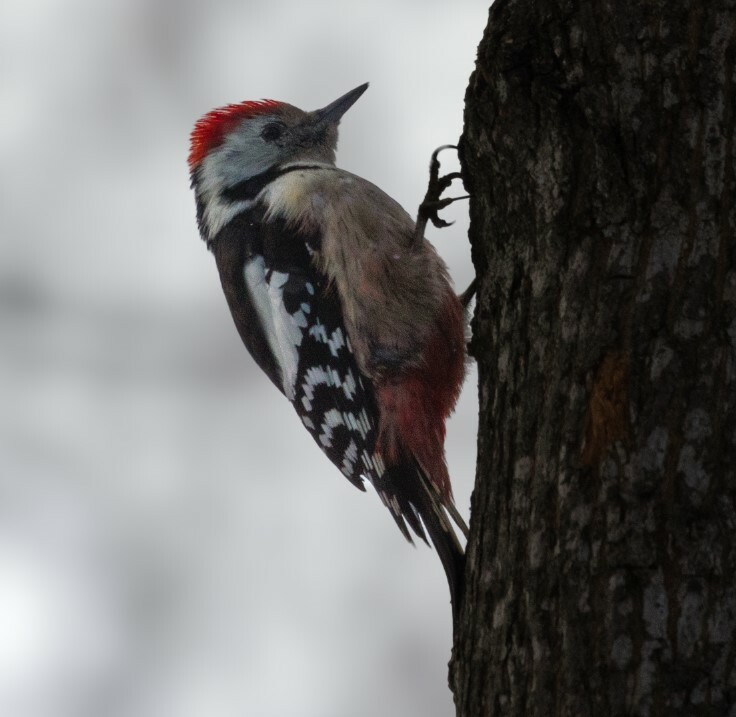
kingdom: Animalia
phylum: Chordata
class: Aves
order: Piciformes
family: Picidae
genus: Dendrocoptes
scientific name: Dendrocoptes medius
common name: Middle spotted woodpecker
